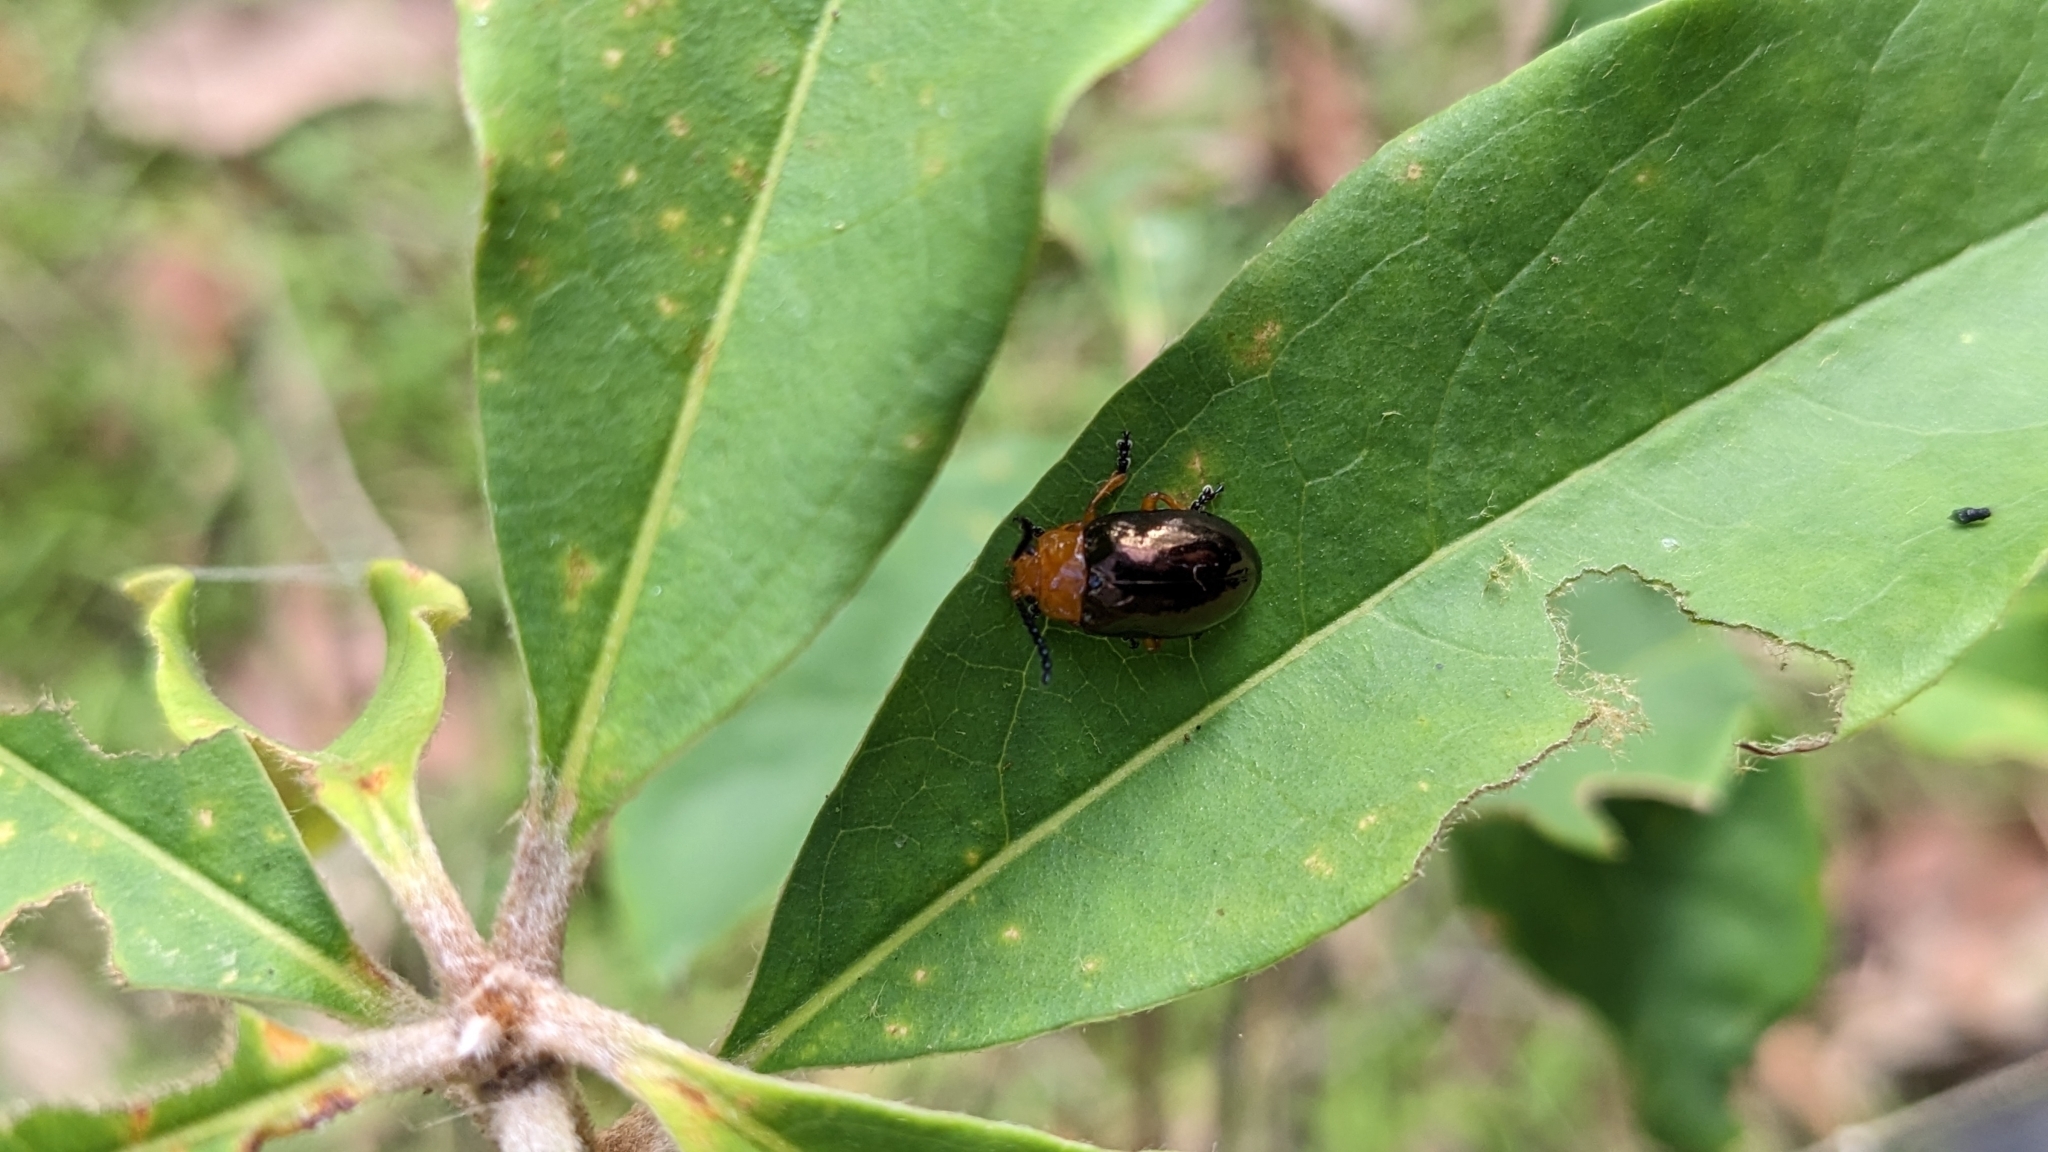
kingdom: Animalia
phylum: Arthropoda
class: Insecta
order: Coleoptera
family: Chrysomelidae
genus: Lamprolina
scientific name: Lamprolina
